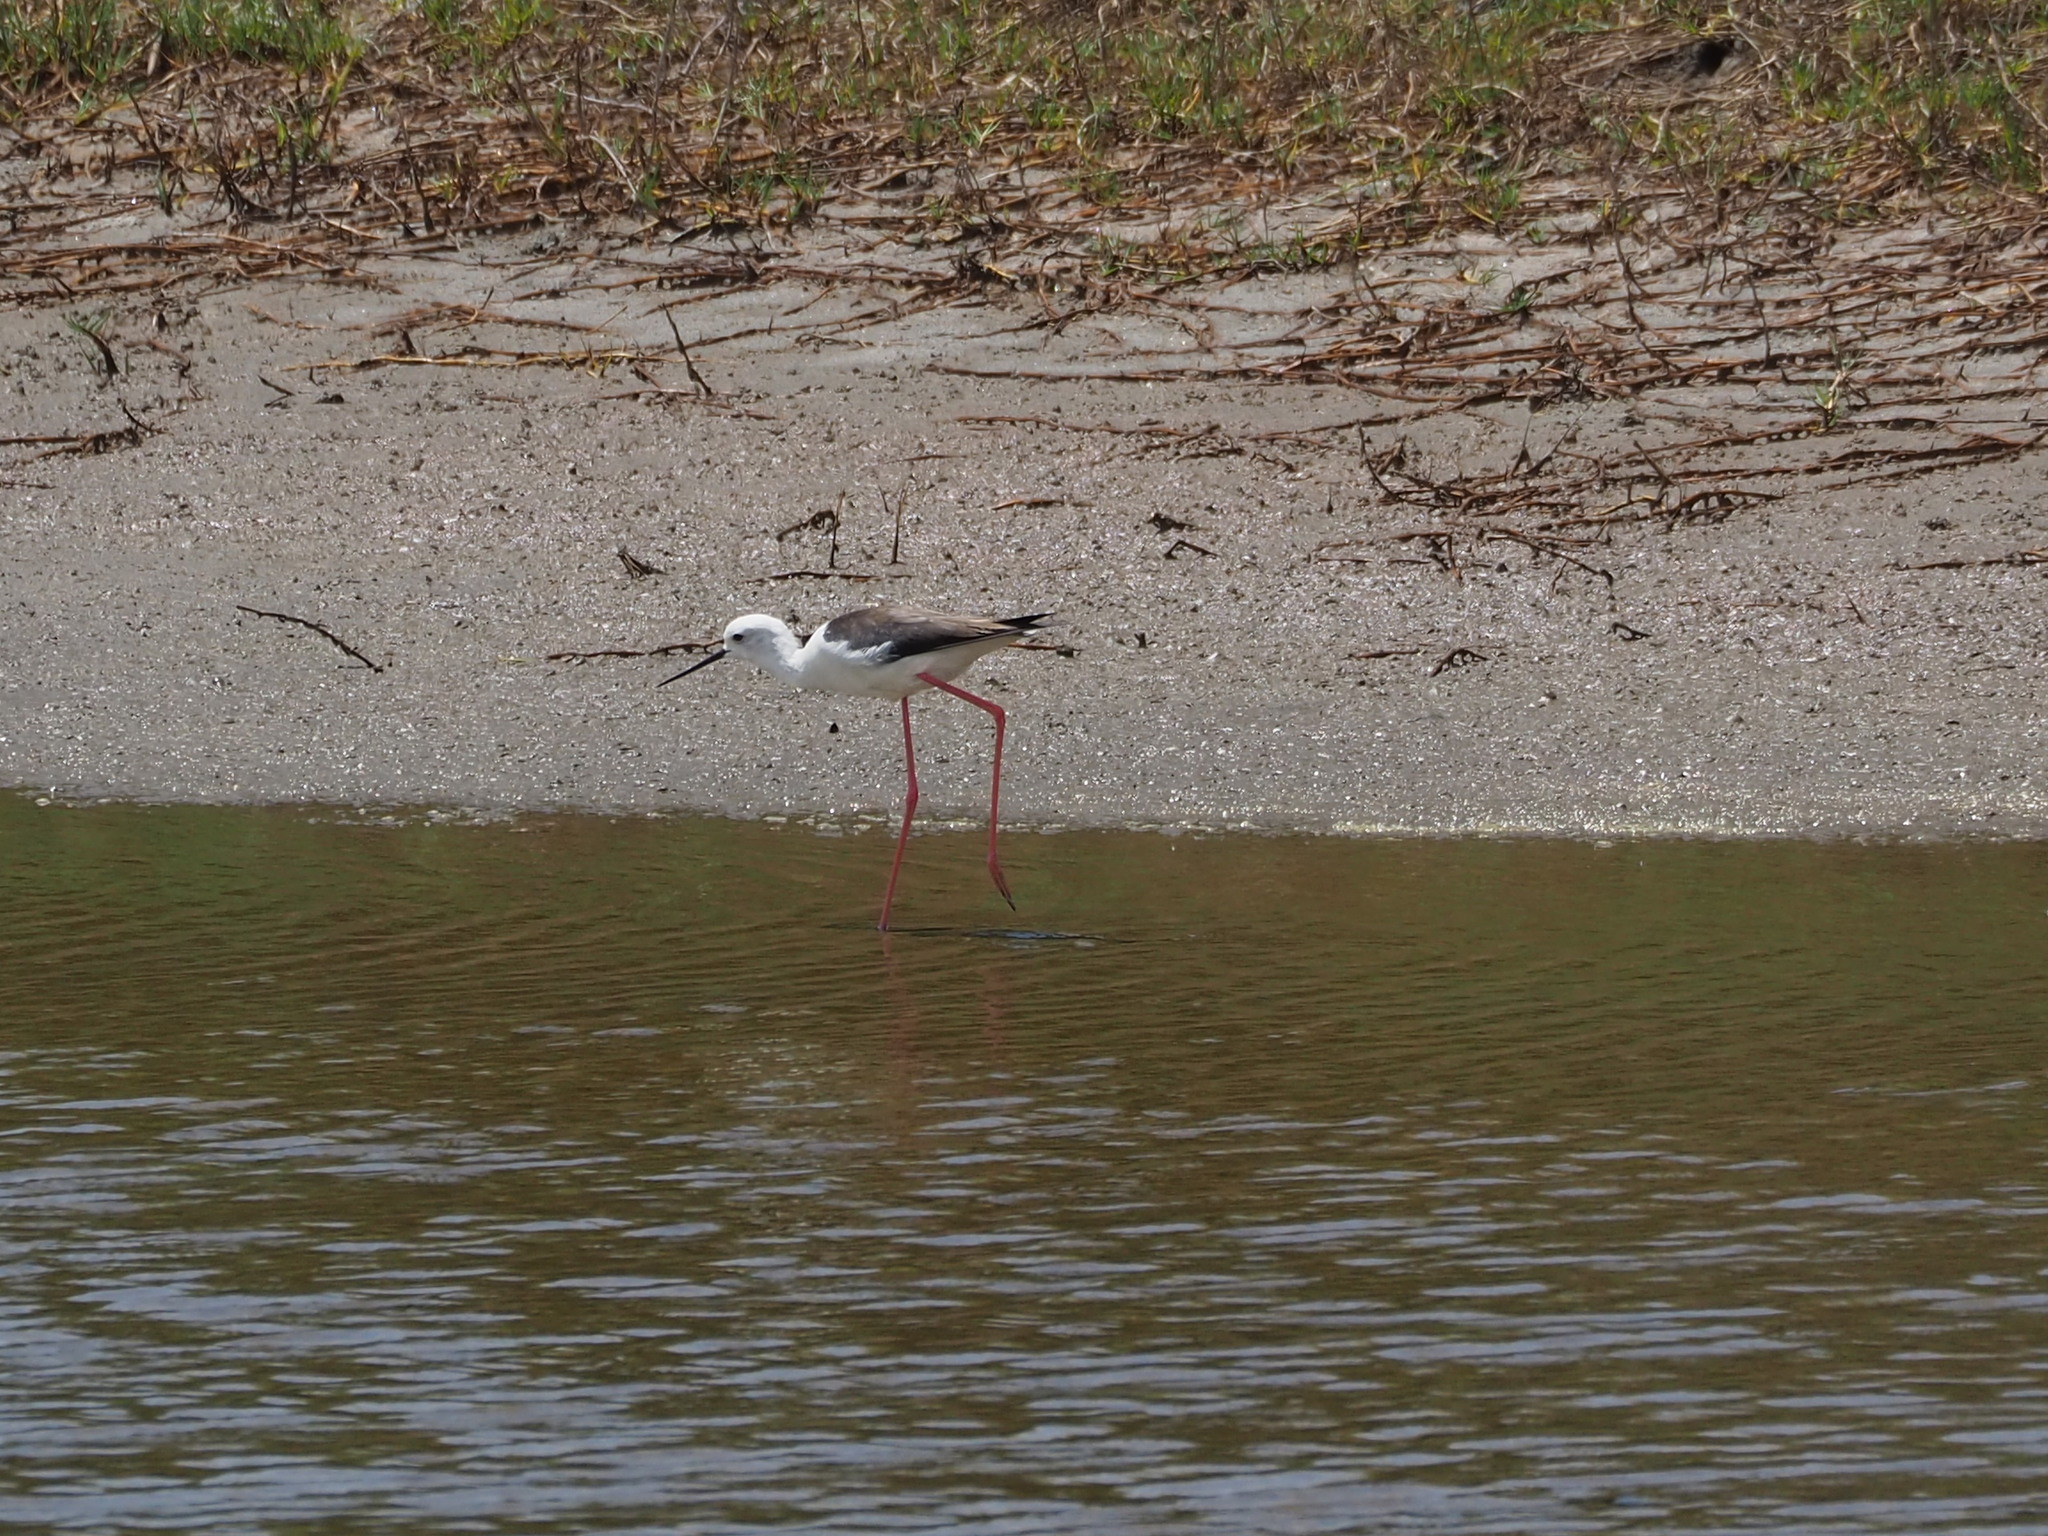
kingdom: Animalia
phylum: Chordata
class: Aves
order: Charadriiformes
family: Recurvirostridae
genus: Himantopus
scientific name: Himantopus himantopus
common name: Black-winged stilt
